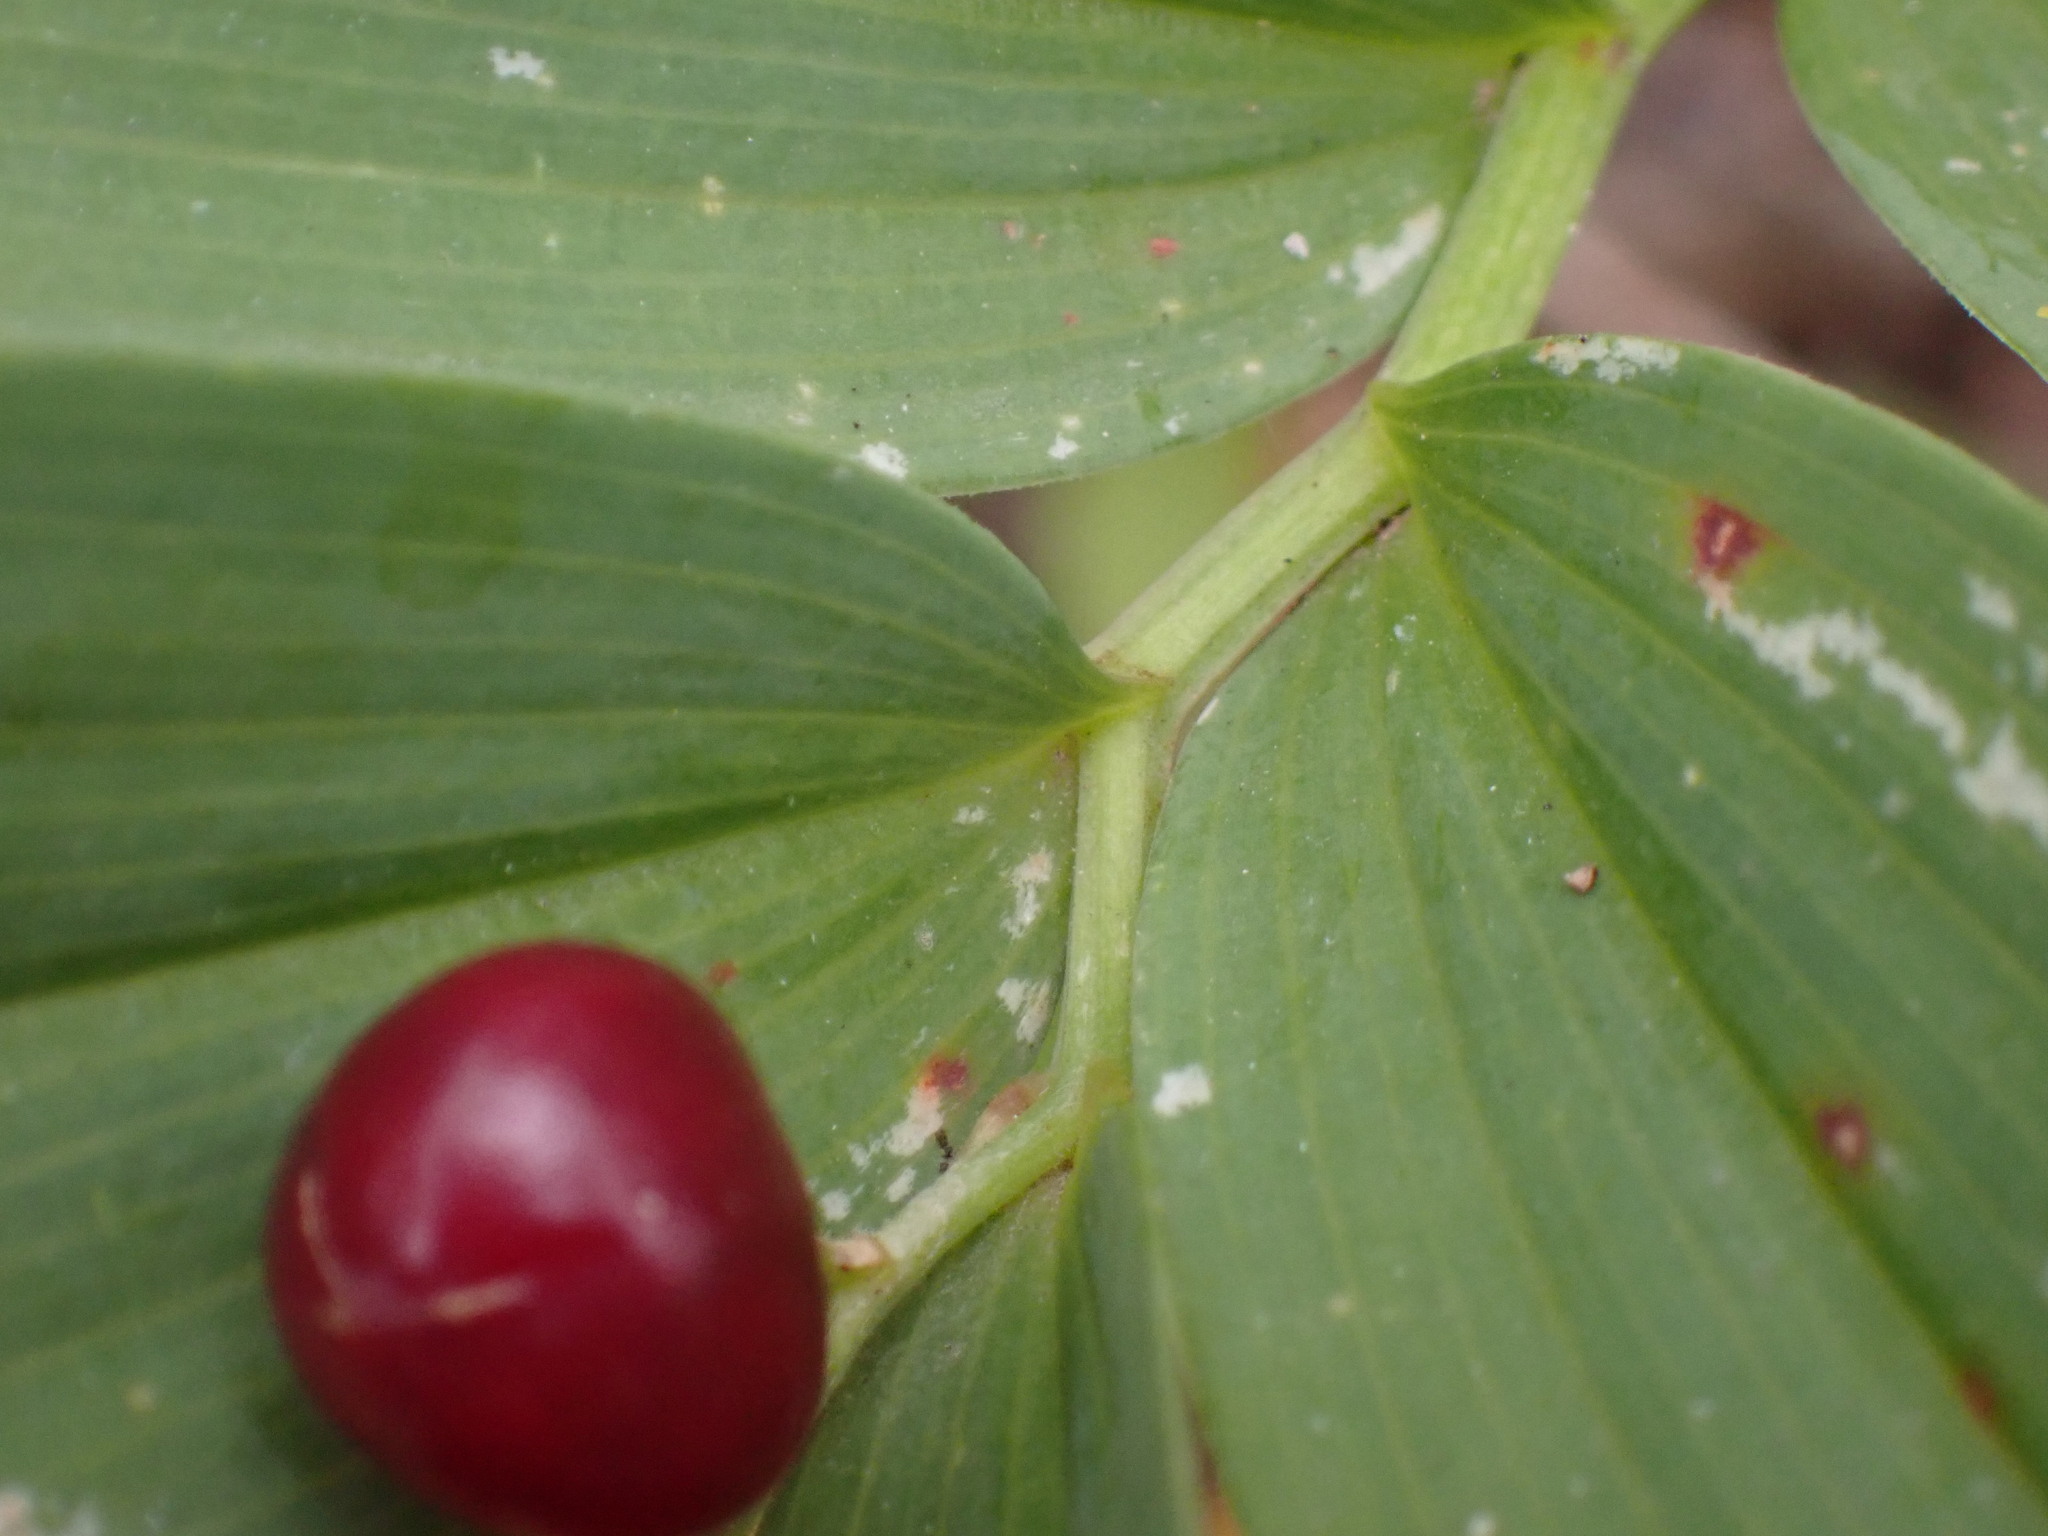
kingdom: Plantae
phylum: Tracheophyta
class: Liliopsida
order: Asparagales
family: Asparagaceae
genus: Maianthemum
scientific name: Maianthemum stellatum
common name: Little false solomon's seal
